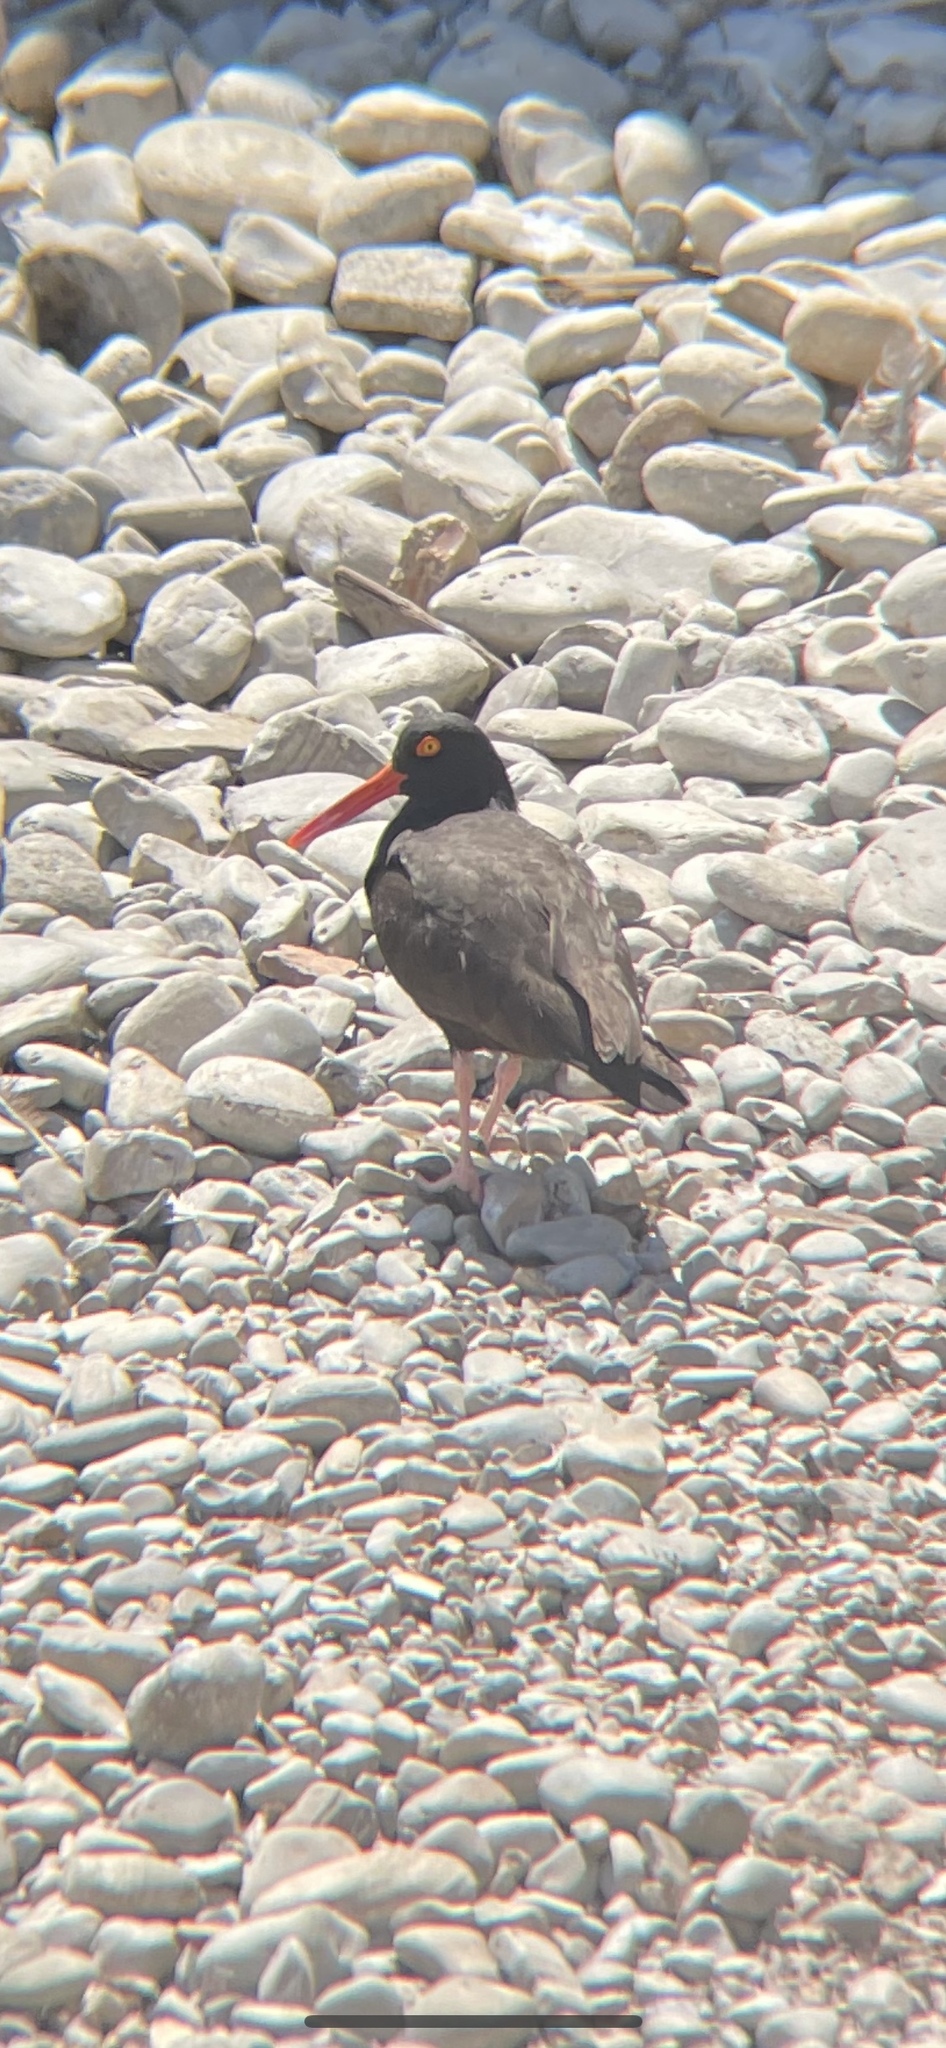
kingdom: Animalia
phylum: Chordata
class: Aves
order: Charadriiformes
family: Haematopodidae
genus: Haematopus
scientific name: Haematopus bachmani
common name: Black oystercatcher
